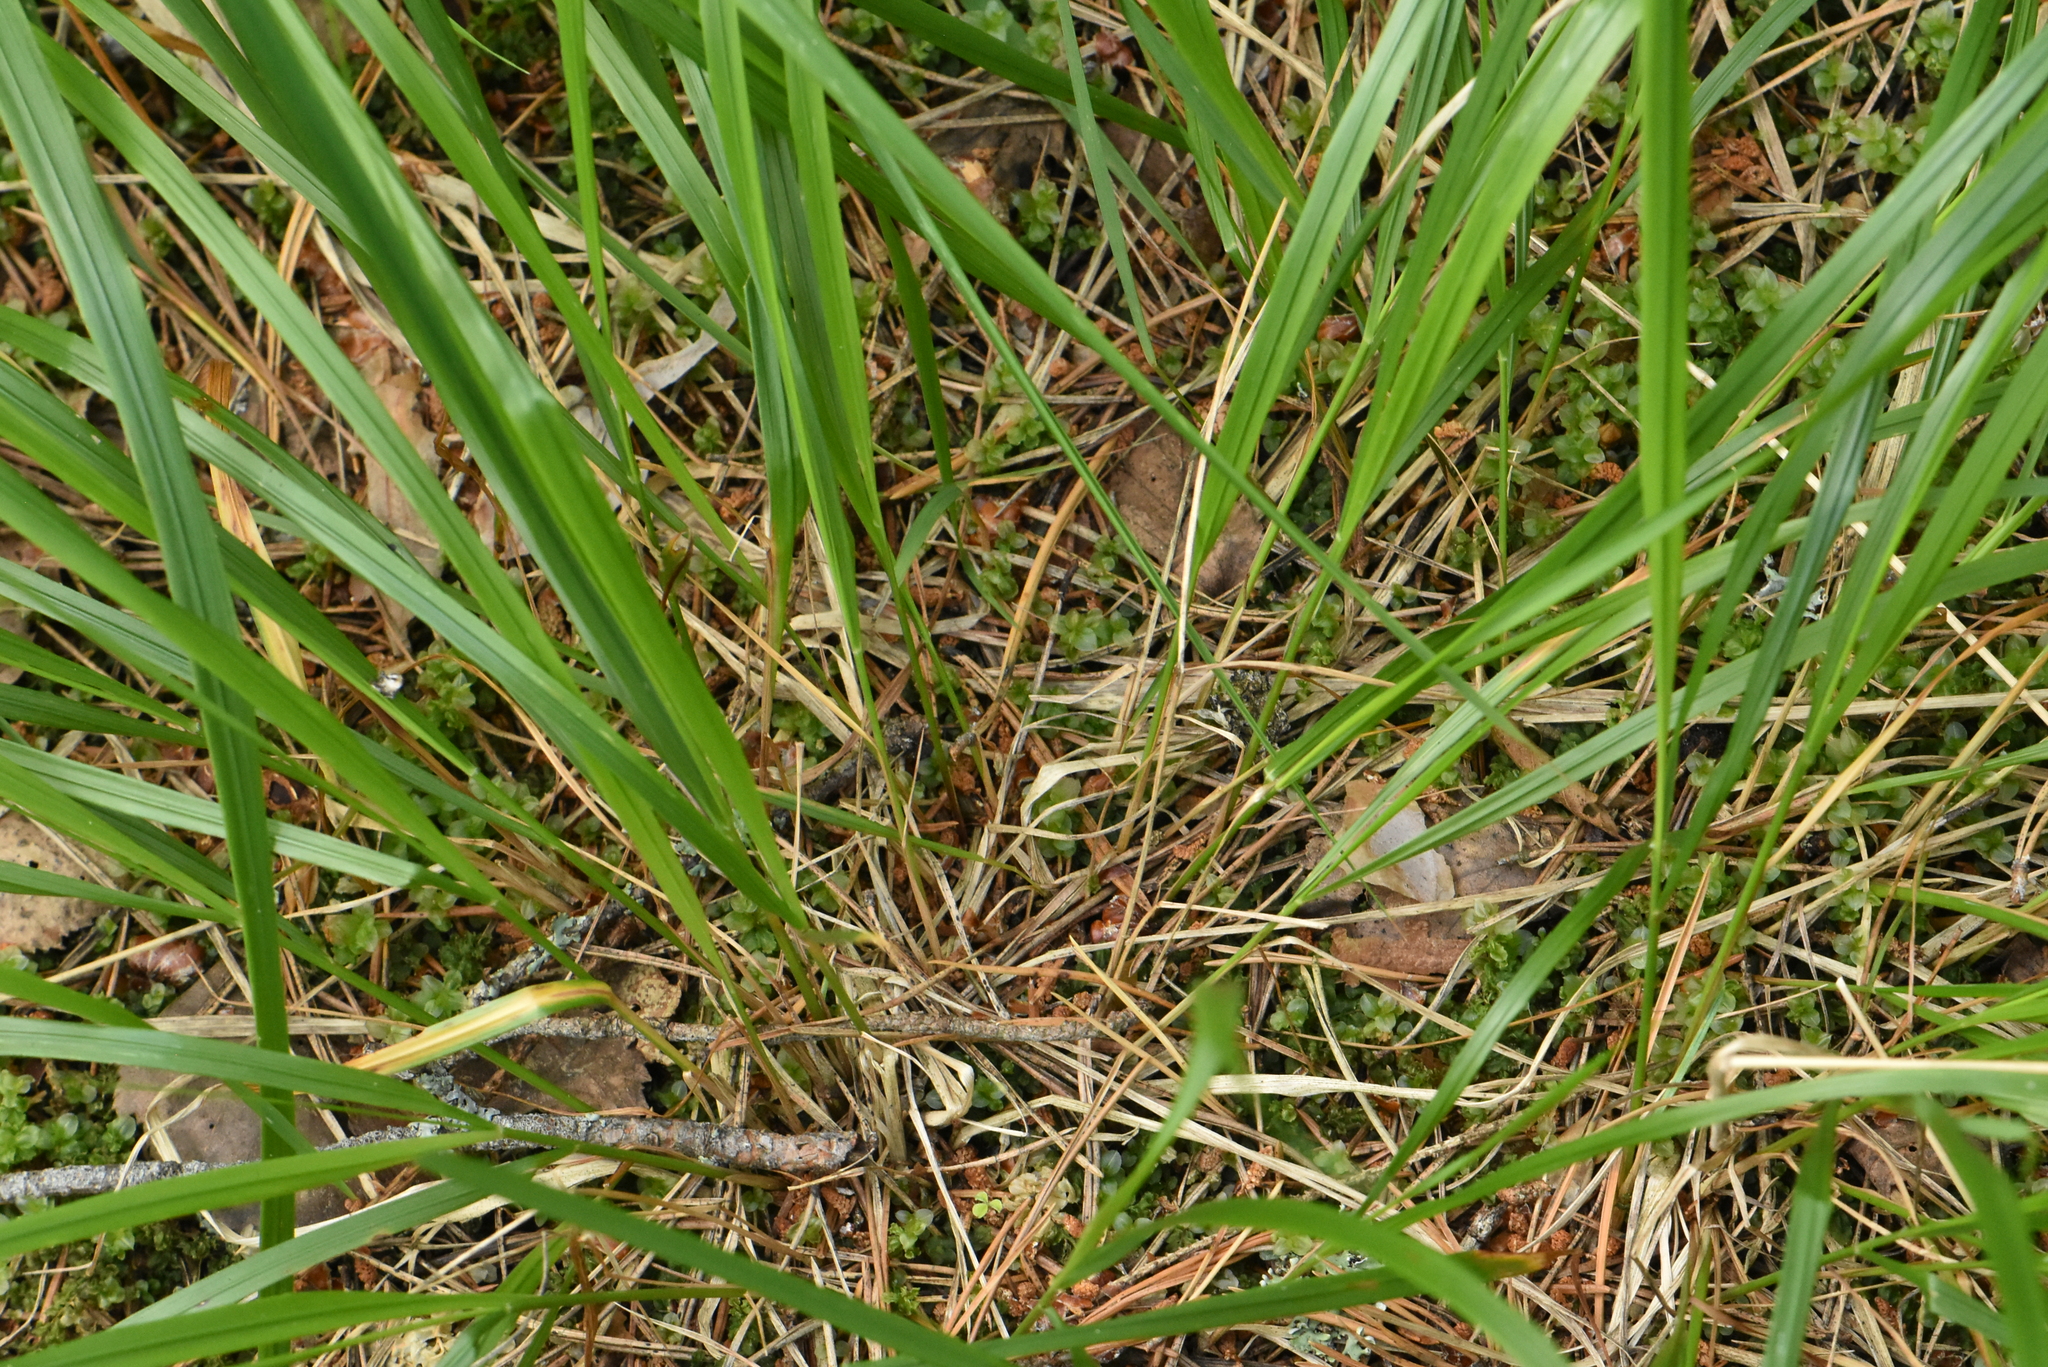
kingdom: Plantae
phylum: Tracheophyta
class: Liliopsida
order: Poales
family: Poaceae
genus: Calamagrostis
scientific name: Calamagrostis arundinacea
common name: Metskastik
